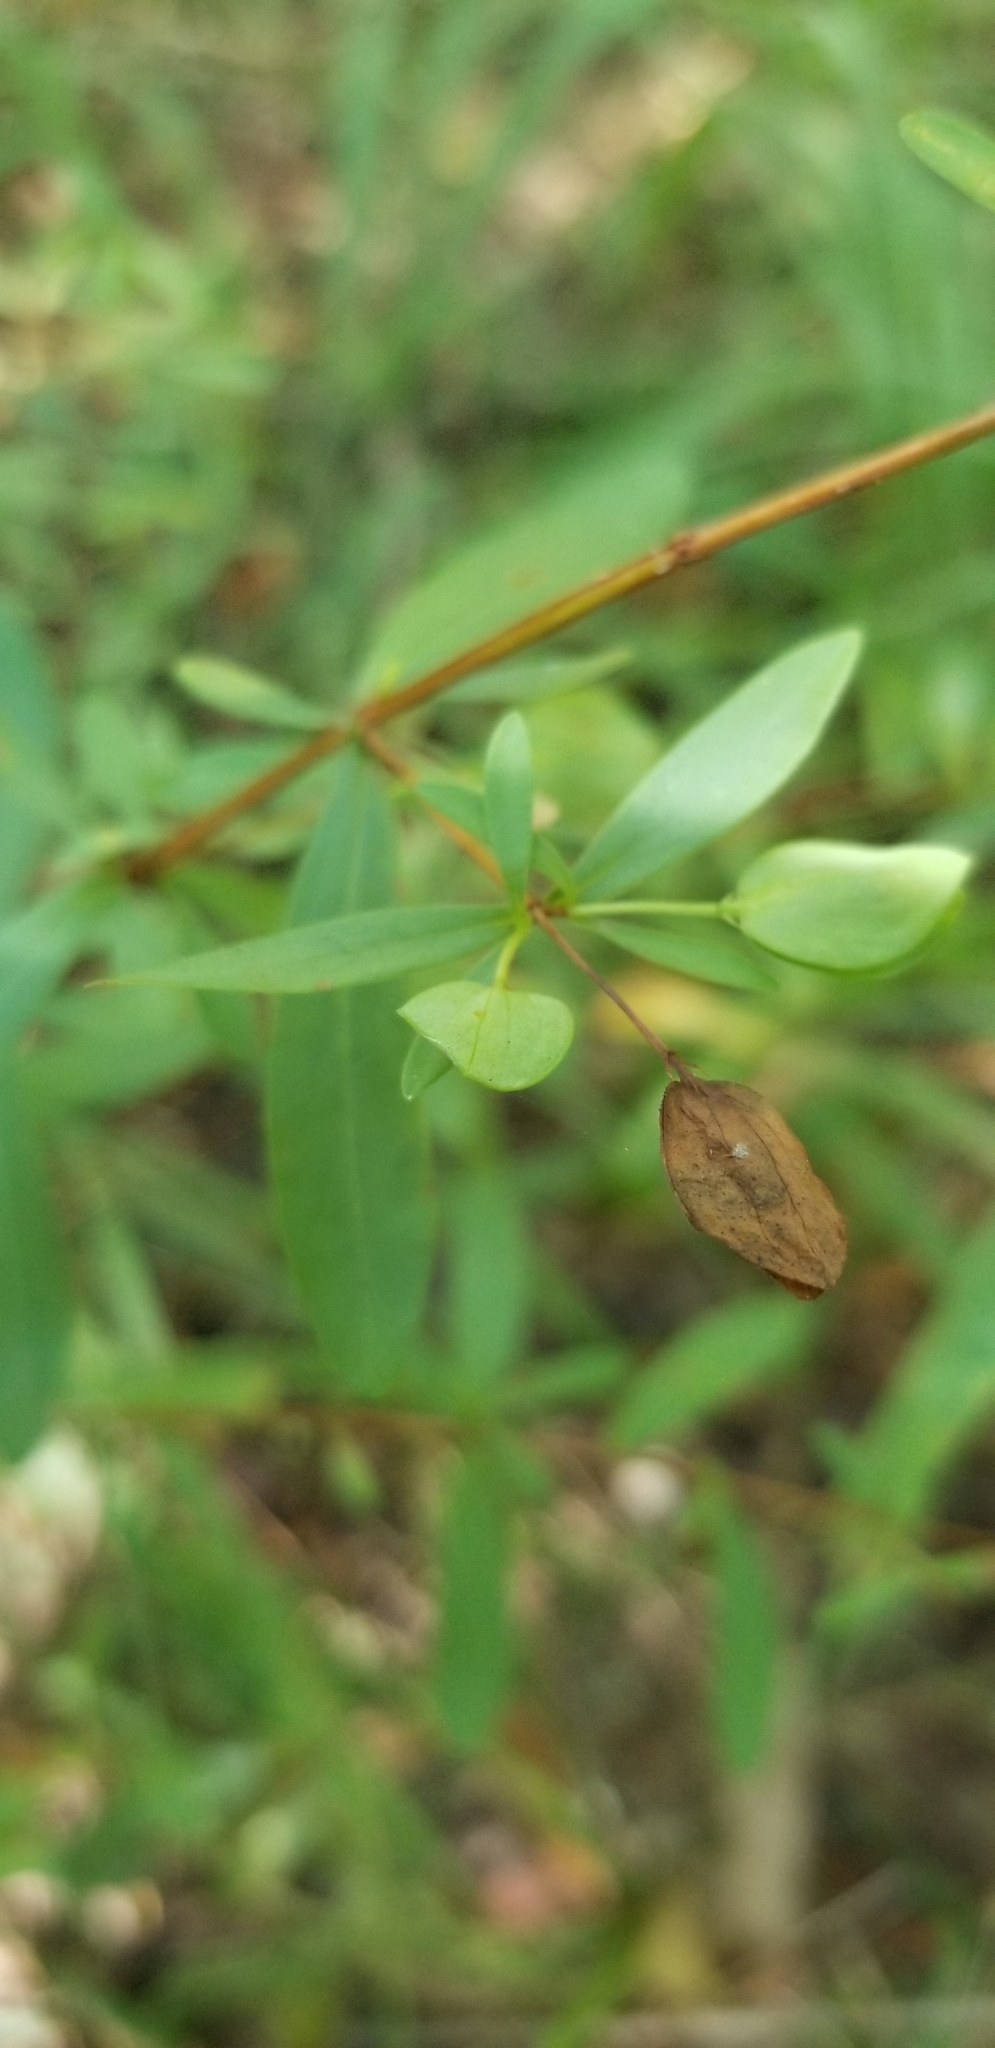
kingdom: Plantae
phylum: Tracheophyta
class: Magnoliopsida
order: Malpighiales
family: Hypericaceae
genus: Hypericum
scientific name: Hypericum hypericoides
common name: St. andrew's cross
